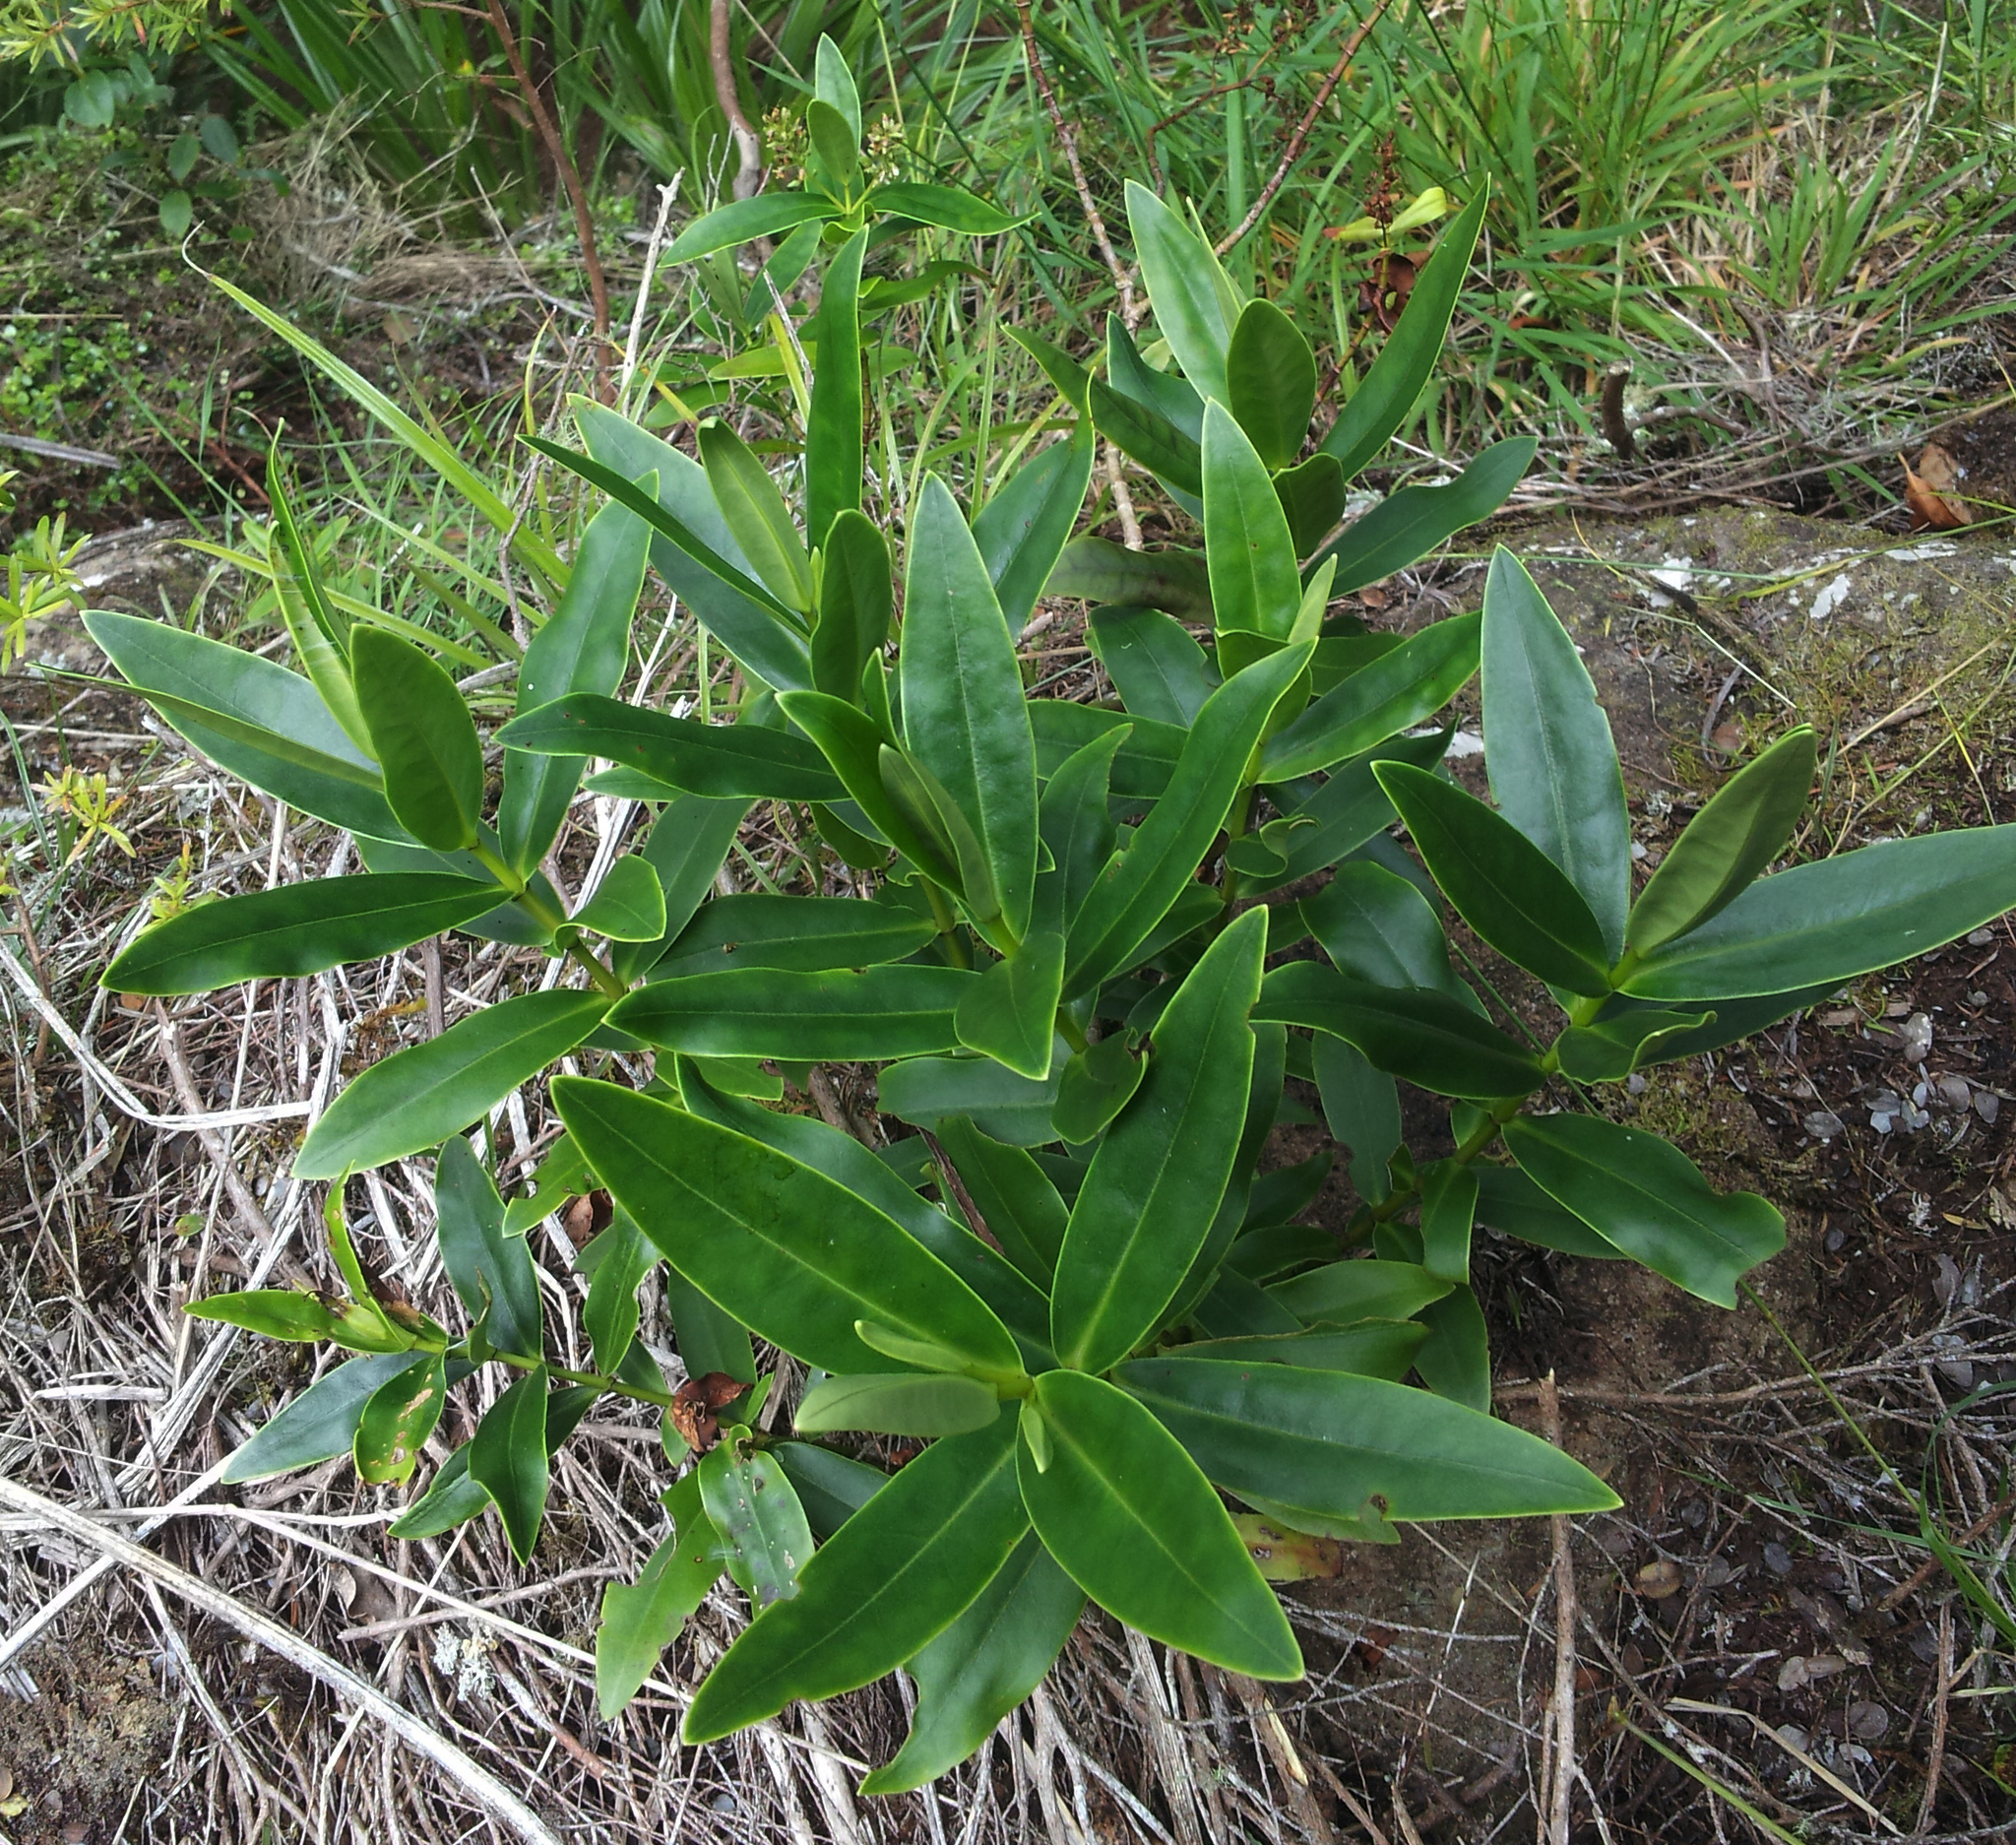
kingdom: Plantae
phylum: Tracheophyta
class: Magnoliopsida
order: Lamiales
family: Plantaginaceae
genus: Veronica
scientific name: Veronica saxicola
